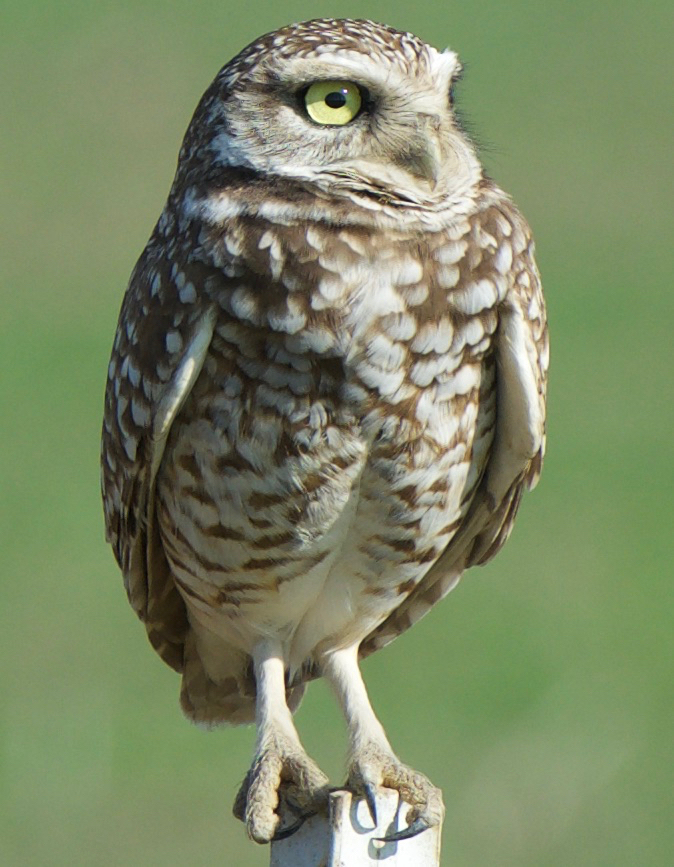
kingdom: Animalia
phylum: Chordata
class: Aves
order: Strigiformes
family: Strigidae
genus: Athene
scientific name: Athene cunicularia
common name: Burrowing owl
